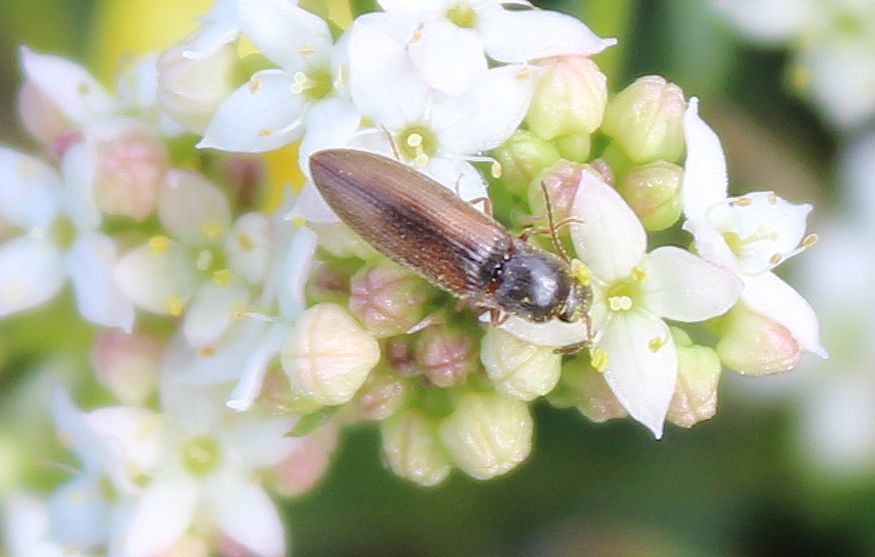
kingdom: Animalia
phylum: Arthropoda
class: Insecta
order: Coleoptera
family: Elateridae
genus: Agriotes
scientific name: Agriotes pallidulus
